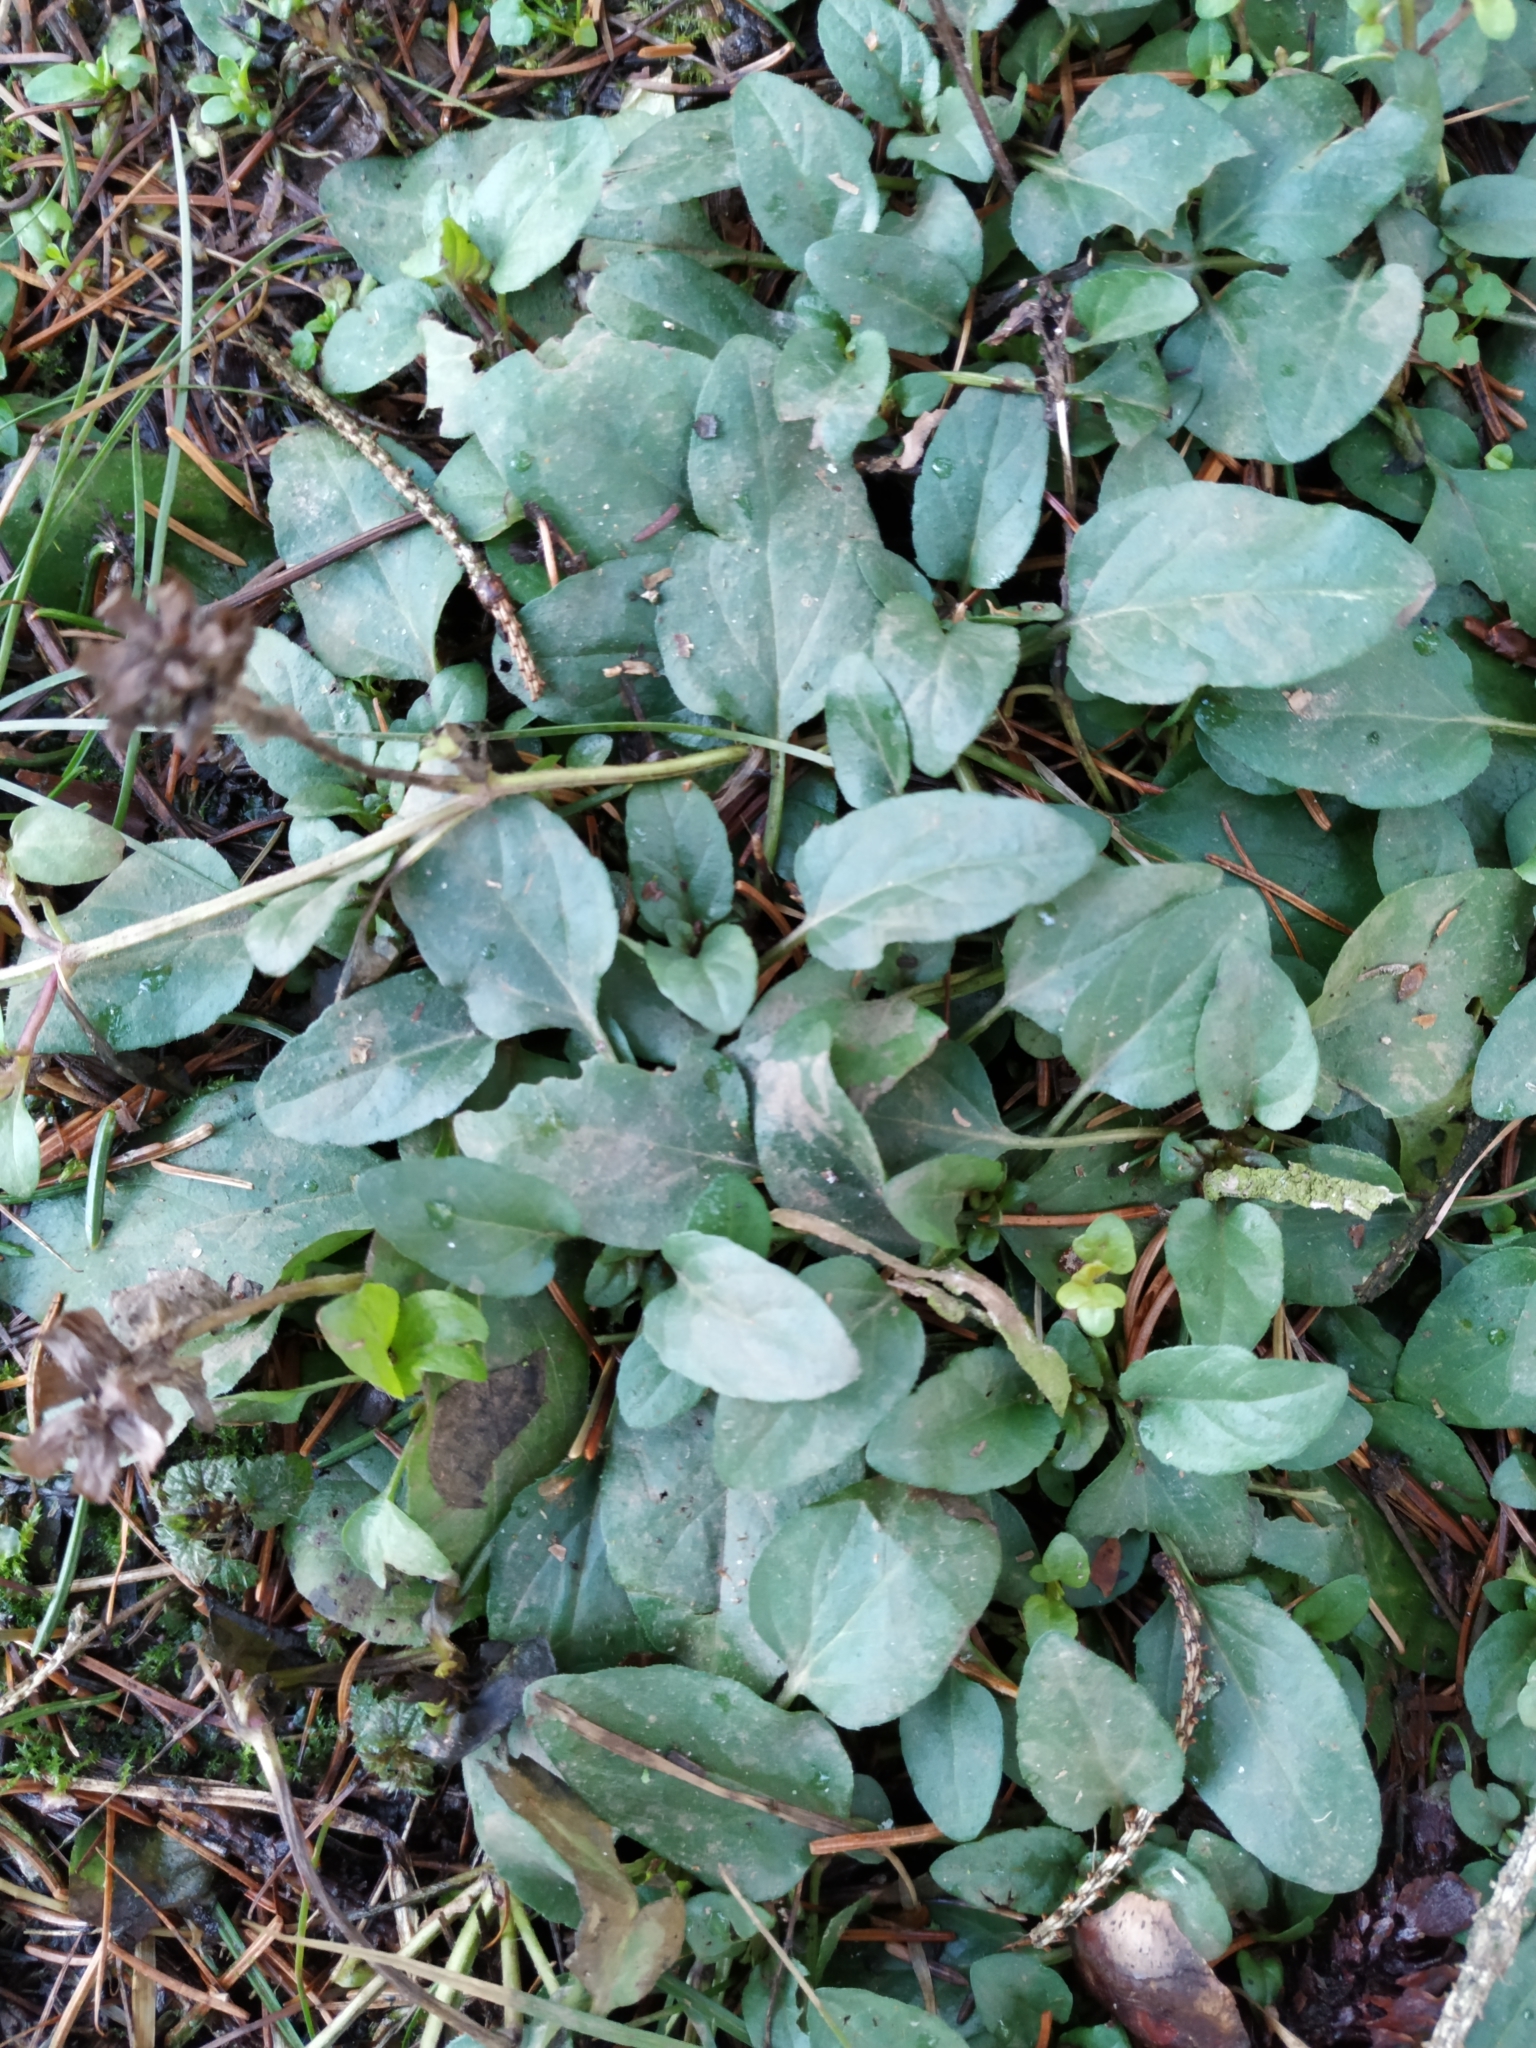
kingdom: Plantae
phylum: Tracheophyta
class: Magnoliopsida
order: Lamiales
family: Lamiaceae
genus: Prunella
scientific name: Prunella vulgaris
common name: Heal-all
